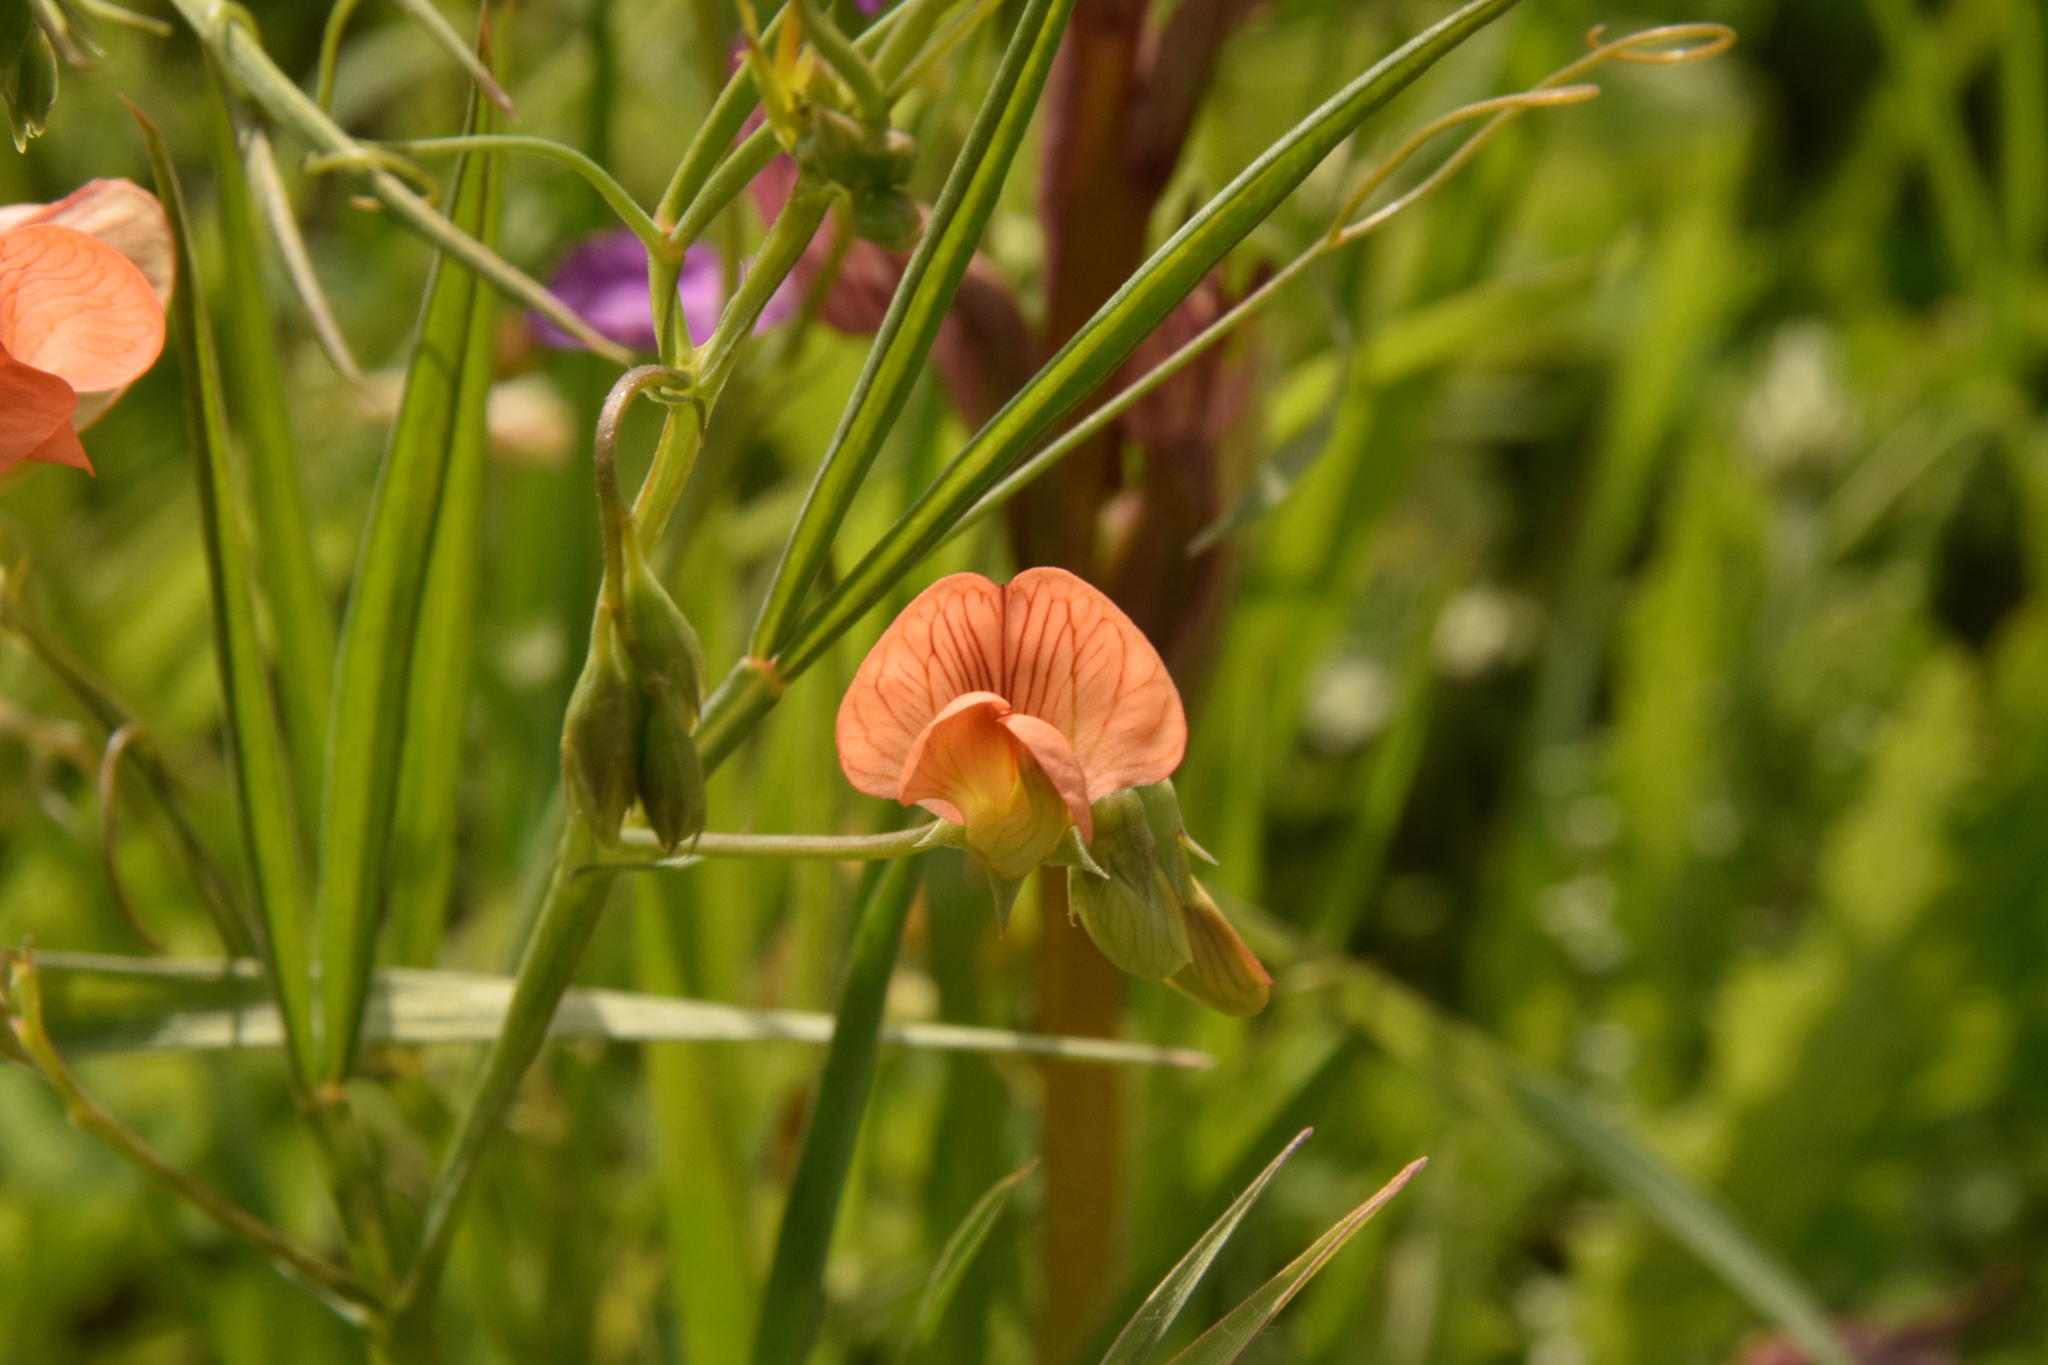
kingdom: Plantae
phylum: Tracheophyta
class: Magnoliopsida
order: Fabales
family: Fabaceae
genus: Lathyrus
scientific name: Lathyrus hierosolymitanus
